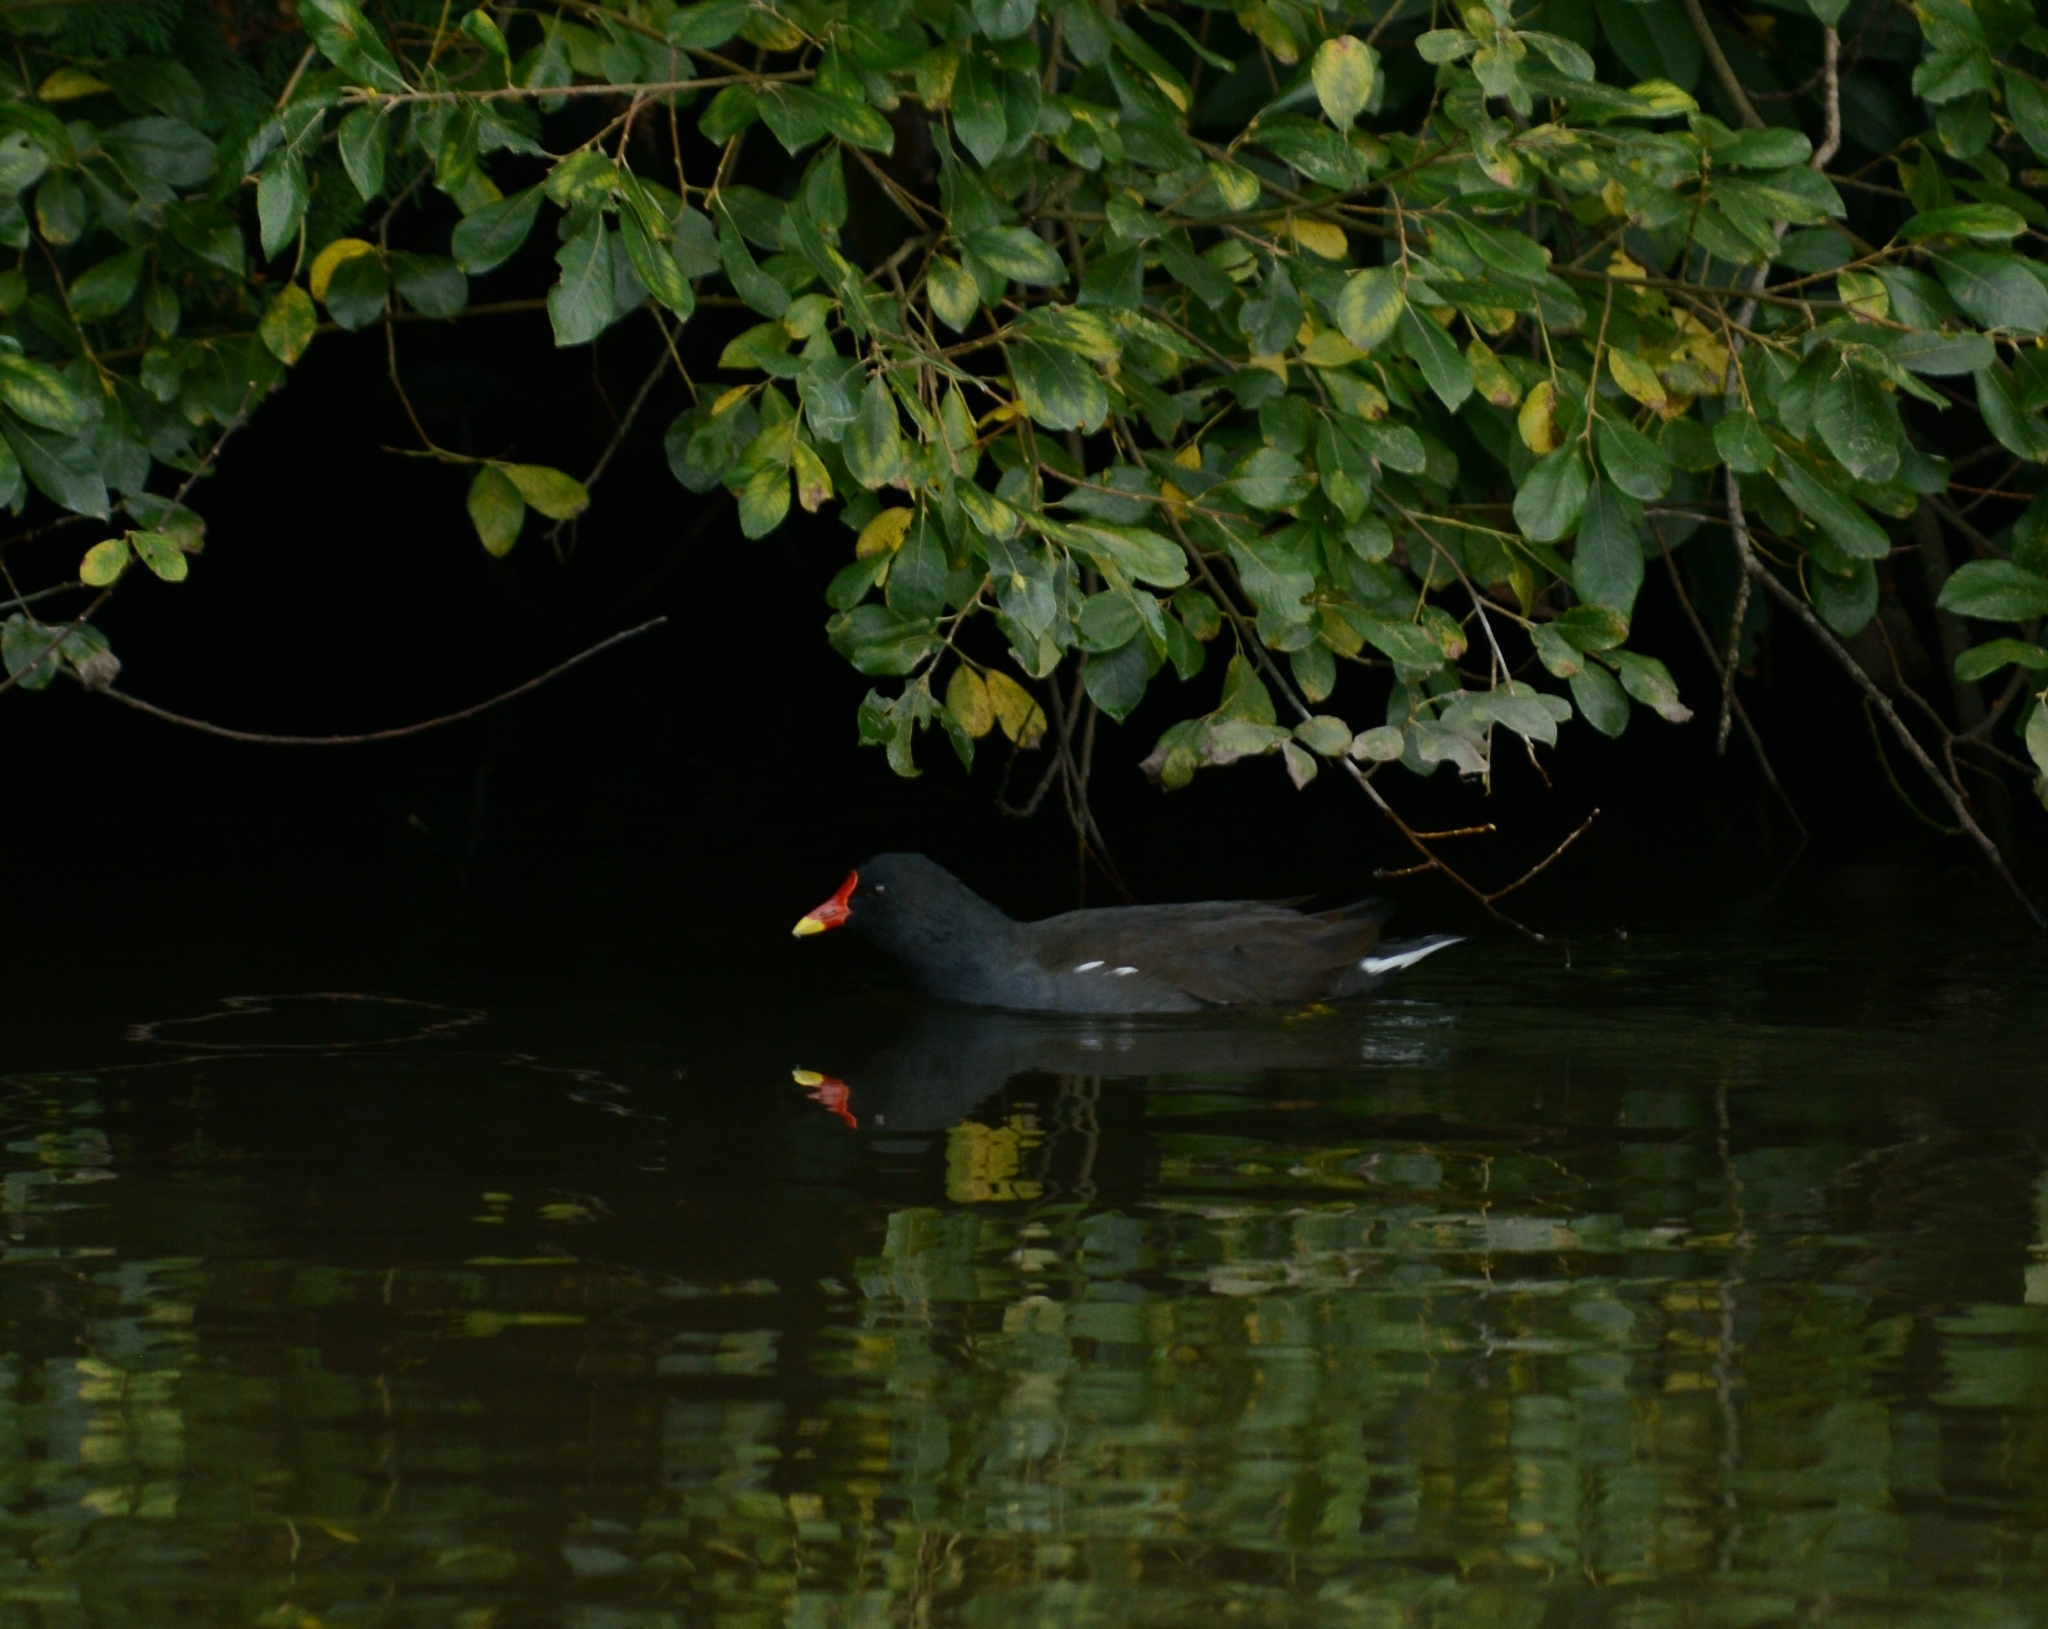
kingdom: Animalia
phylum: Chordata
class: Aves
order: Gruiformes
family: Rallidae
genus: Gallinula
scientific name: Gallinula chloropus
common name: Common moorhen
